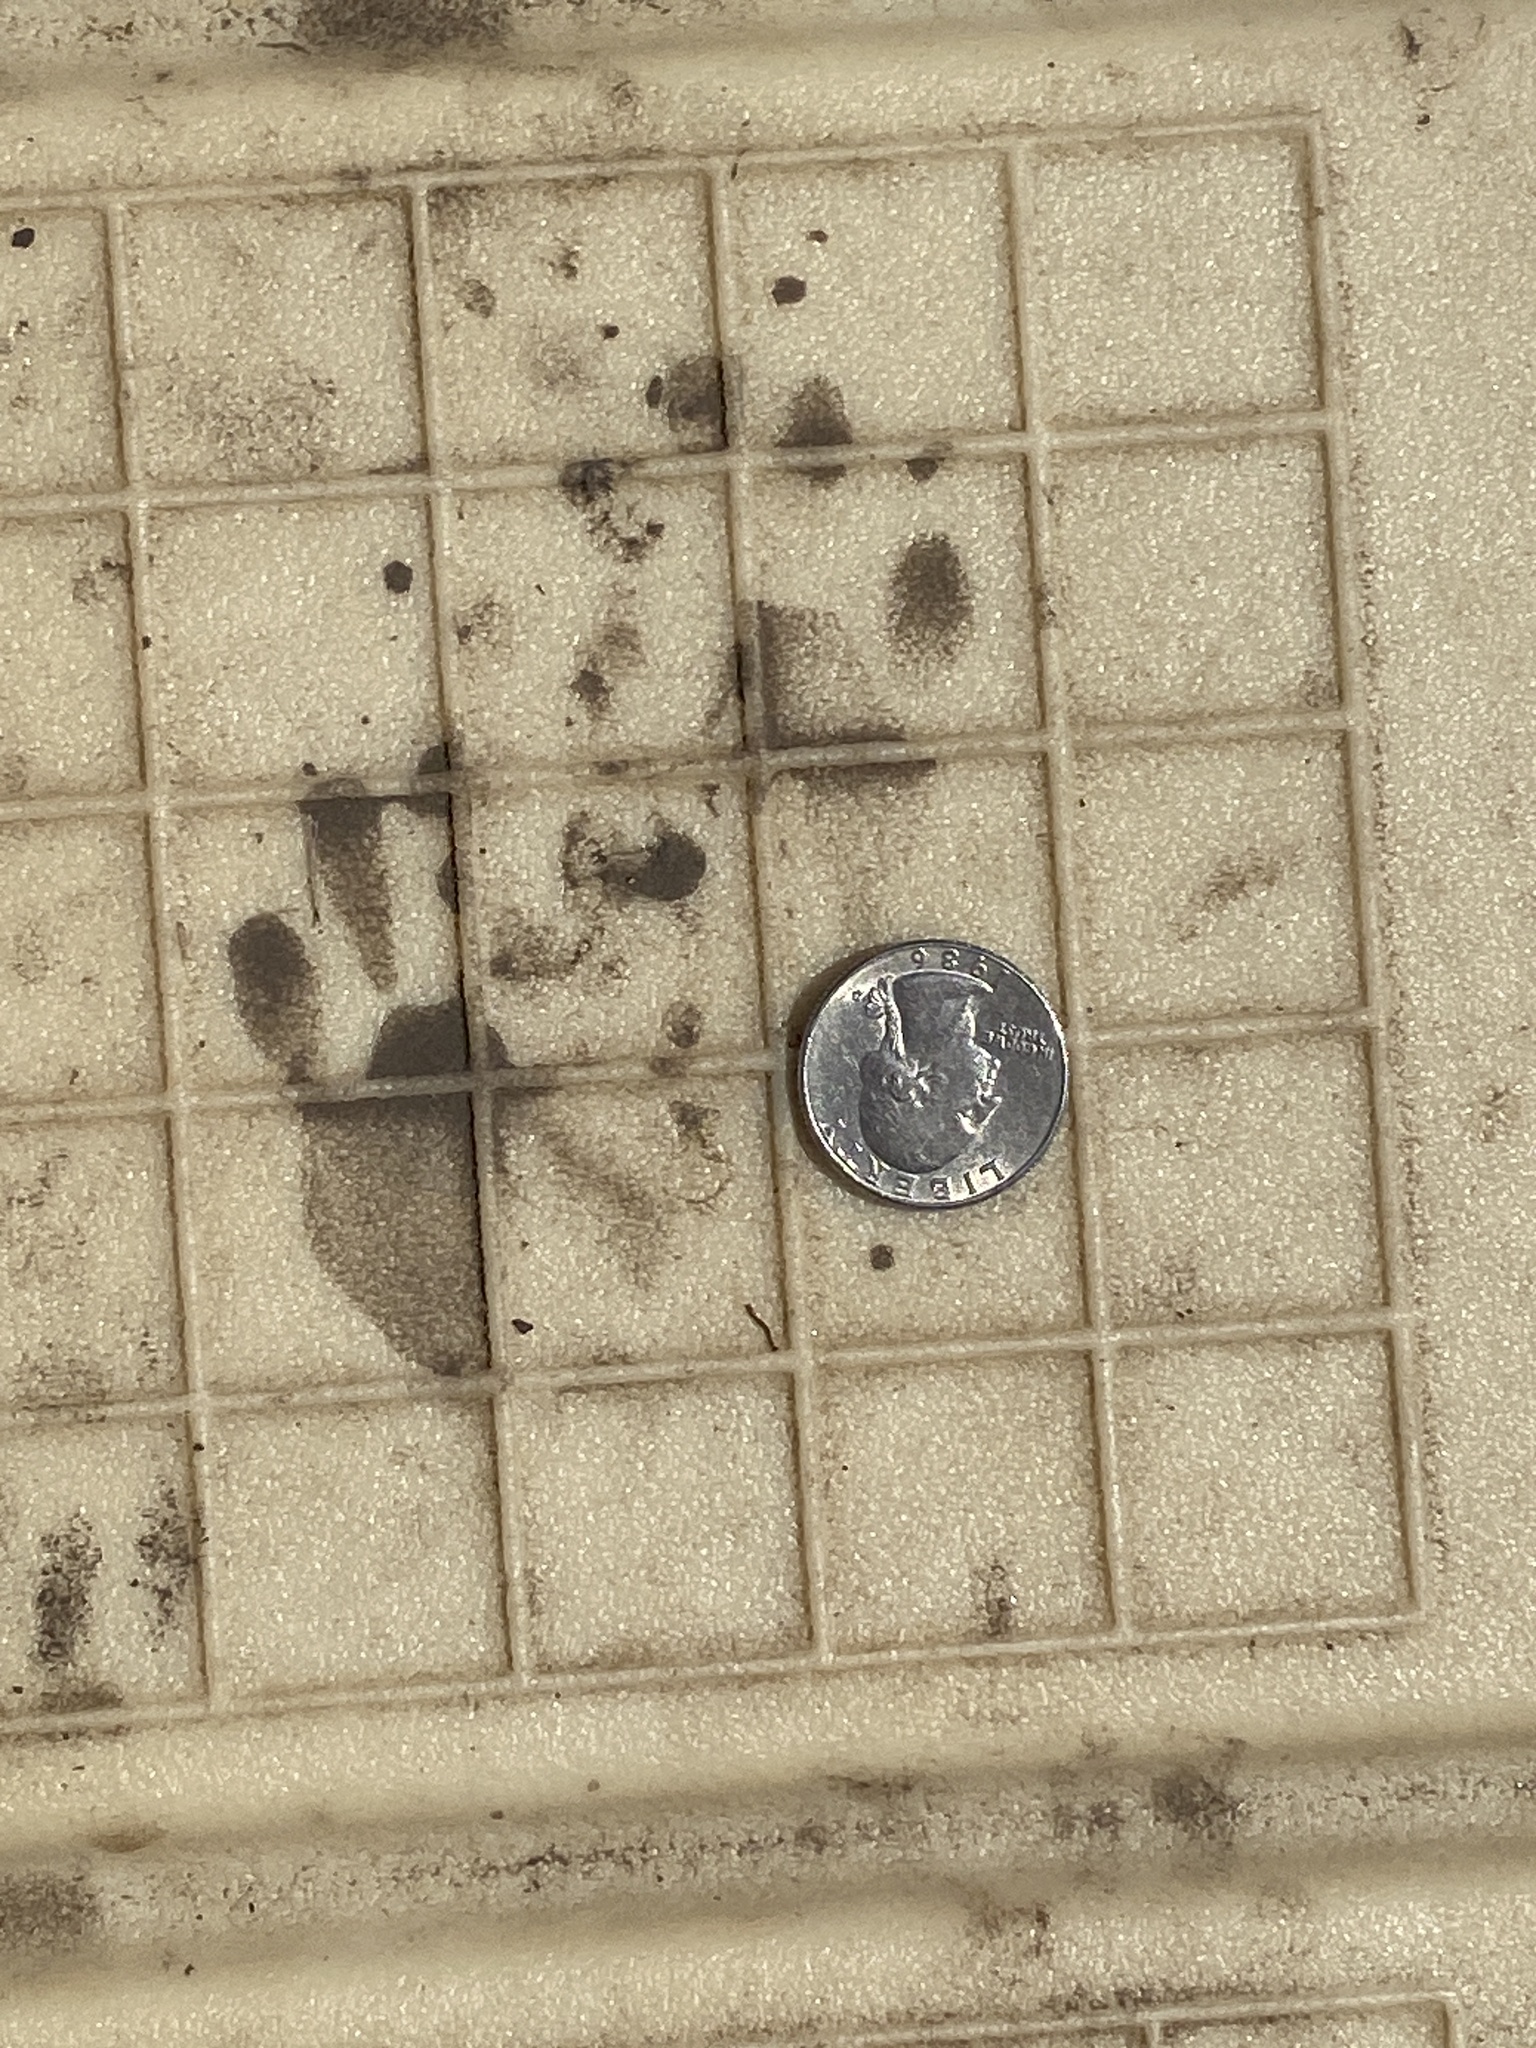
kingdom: Animalia
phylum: Chordata
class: Mammalia
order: Carnivora
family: Procyonidae
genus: Procyon
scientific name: Procyon lotor
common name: Raccoon
